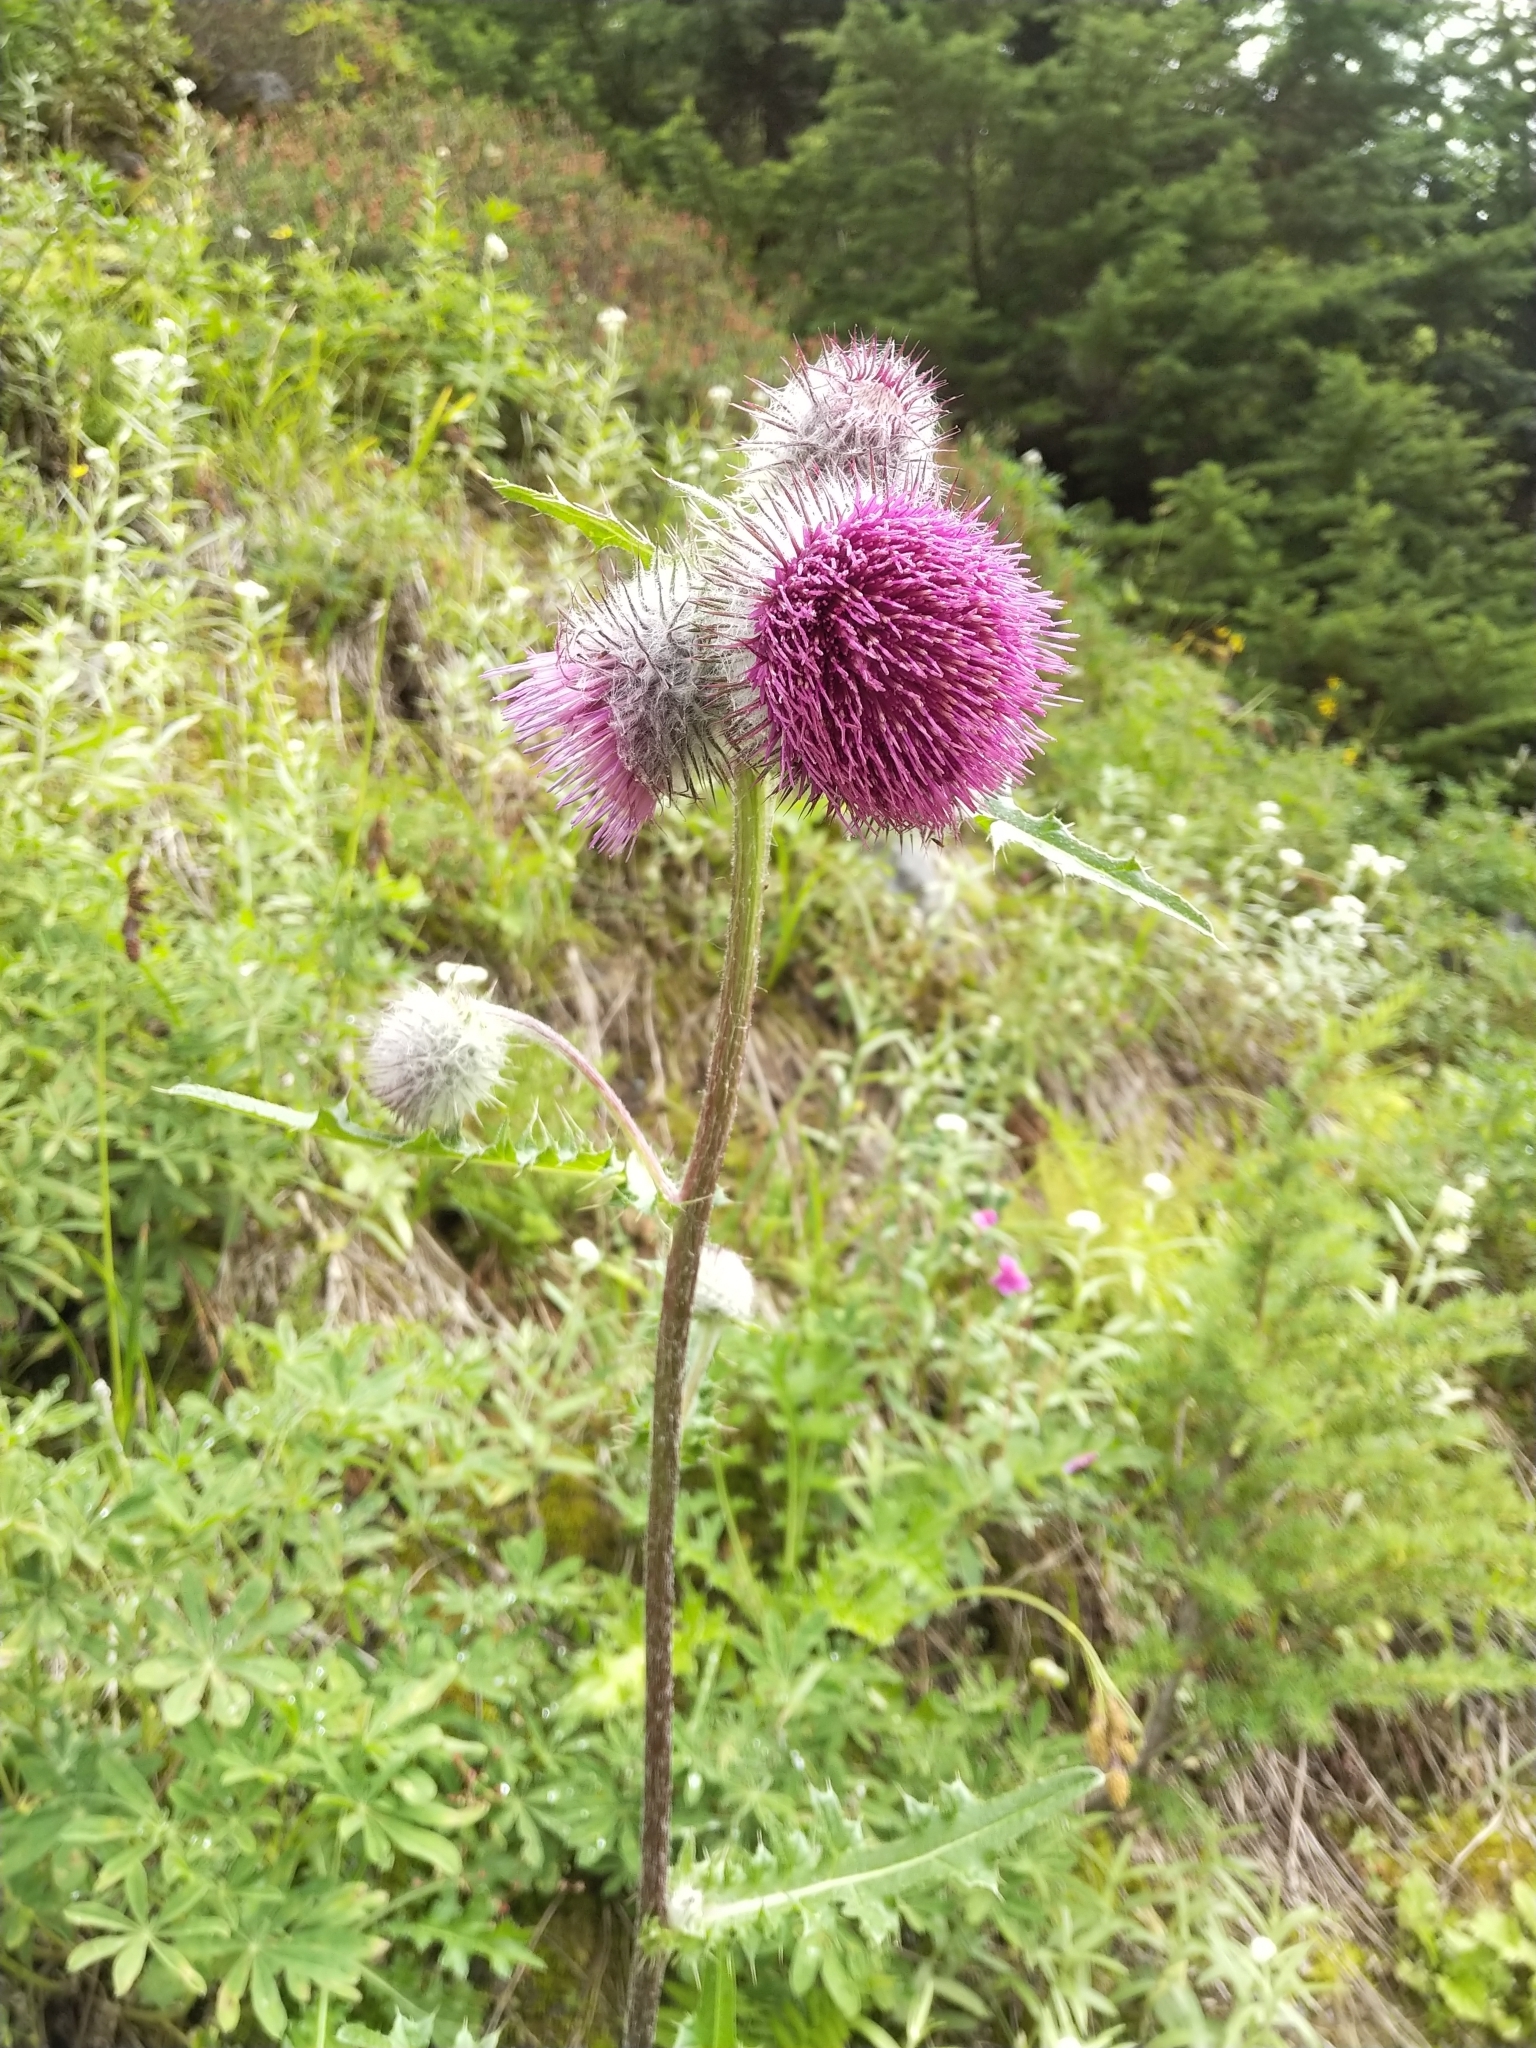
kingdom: Plantae
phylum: Tracheophyta
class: Magnoliopsida
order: Asterales
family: Asteraceae
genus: Cirsium
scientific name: Cirsium edule
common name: Indian thistle
